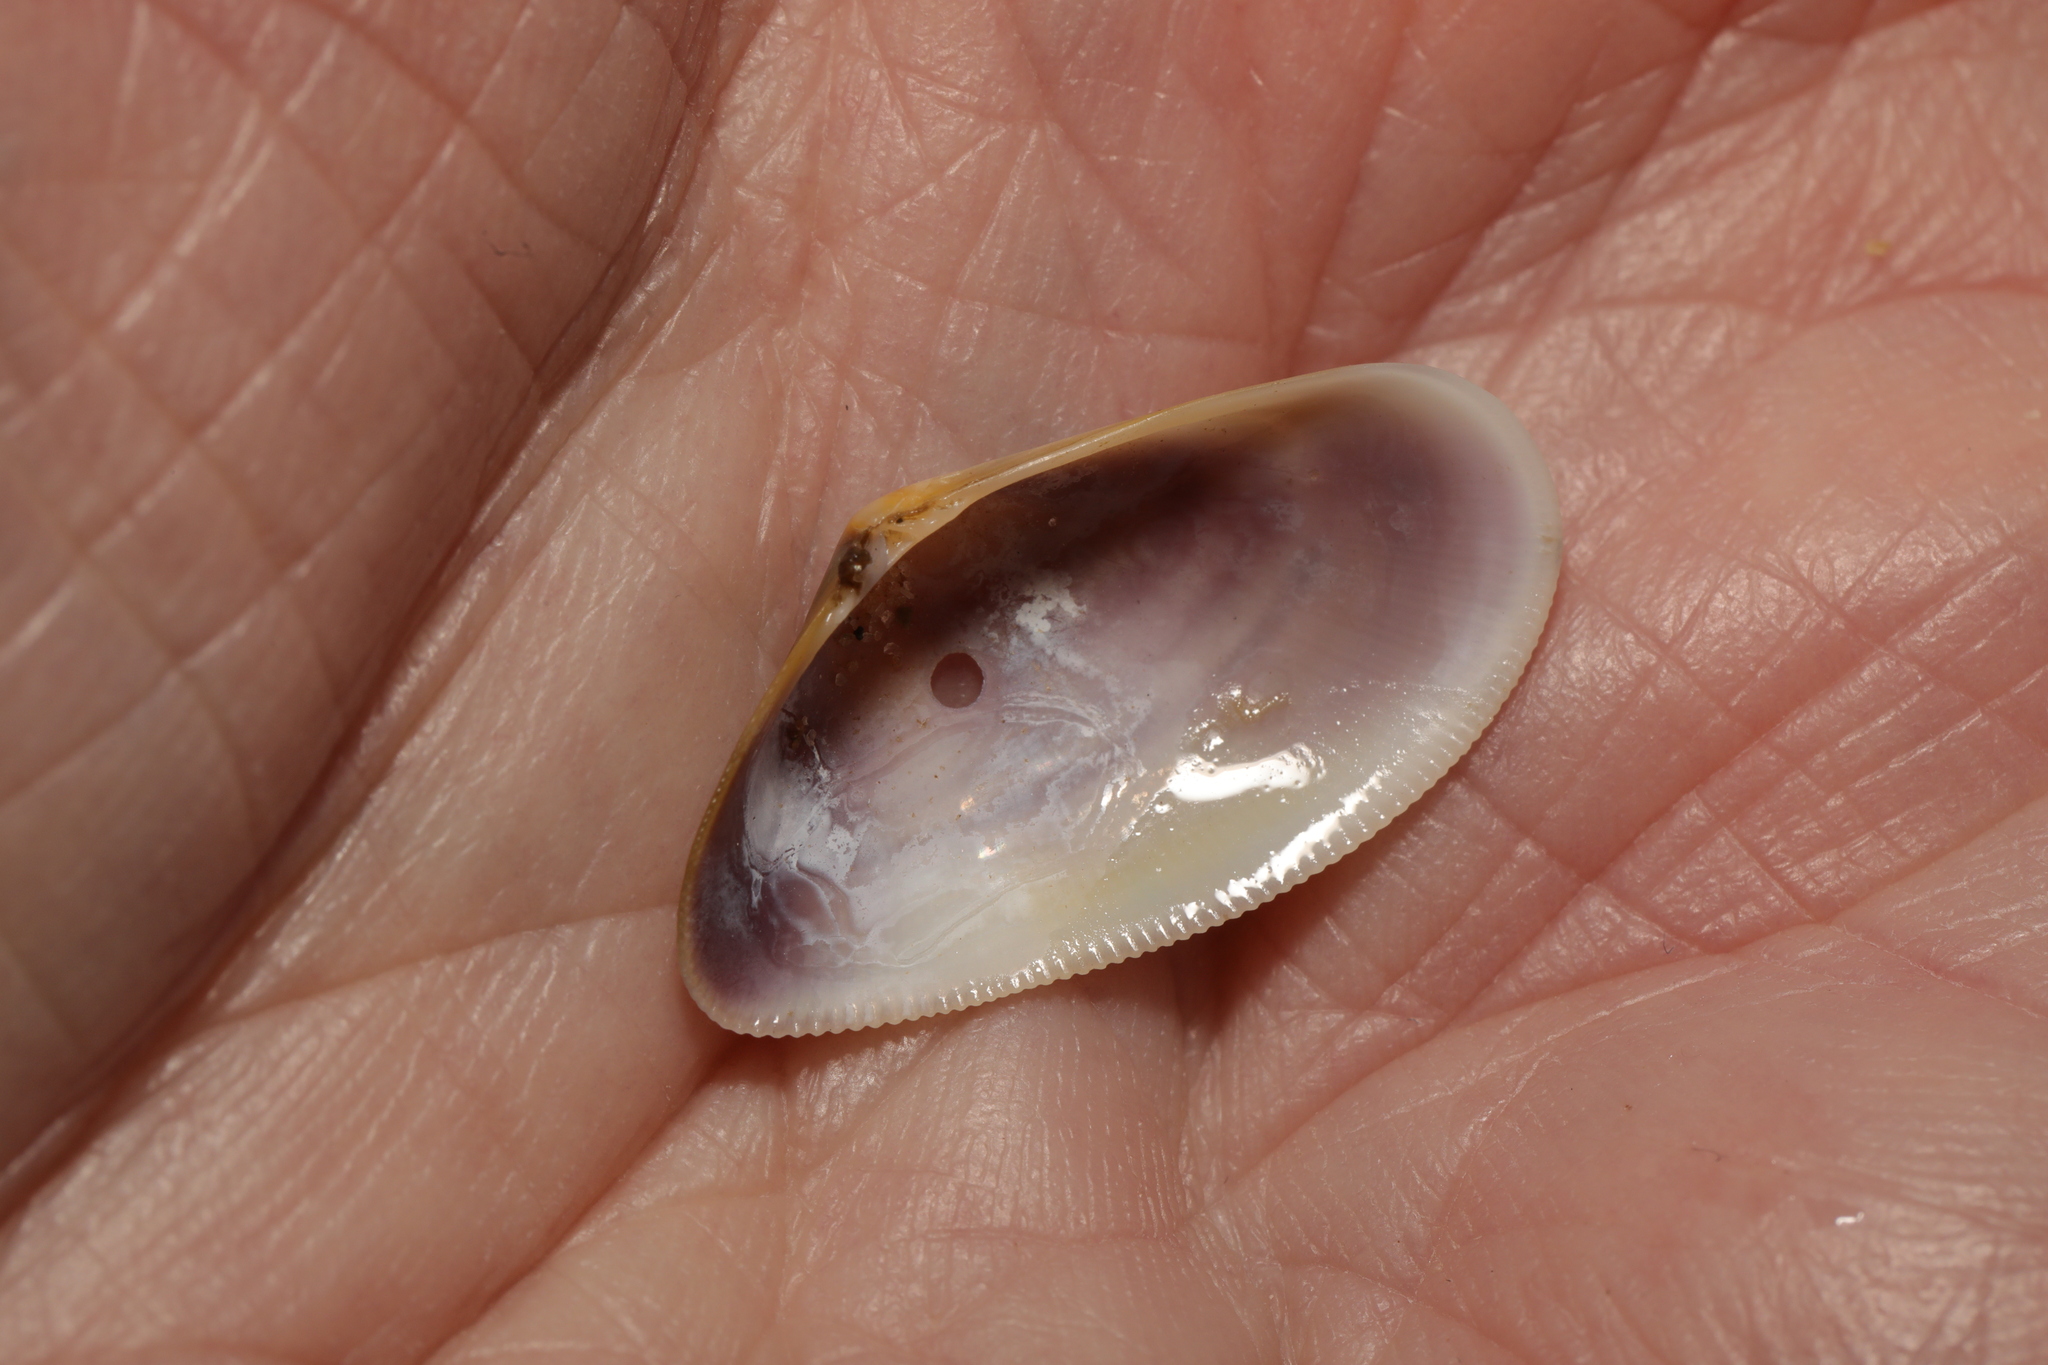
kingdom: Animalia
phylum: Mollusca
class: Bivalvia
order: Cardiida
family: Donacidae
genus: Donax
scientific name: Donax vittatus
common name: Banded wedge-shell
